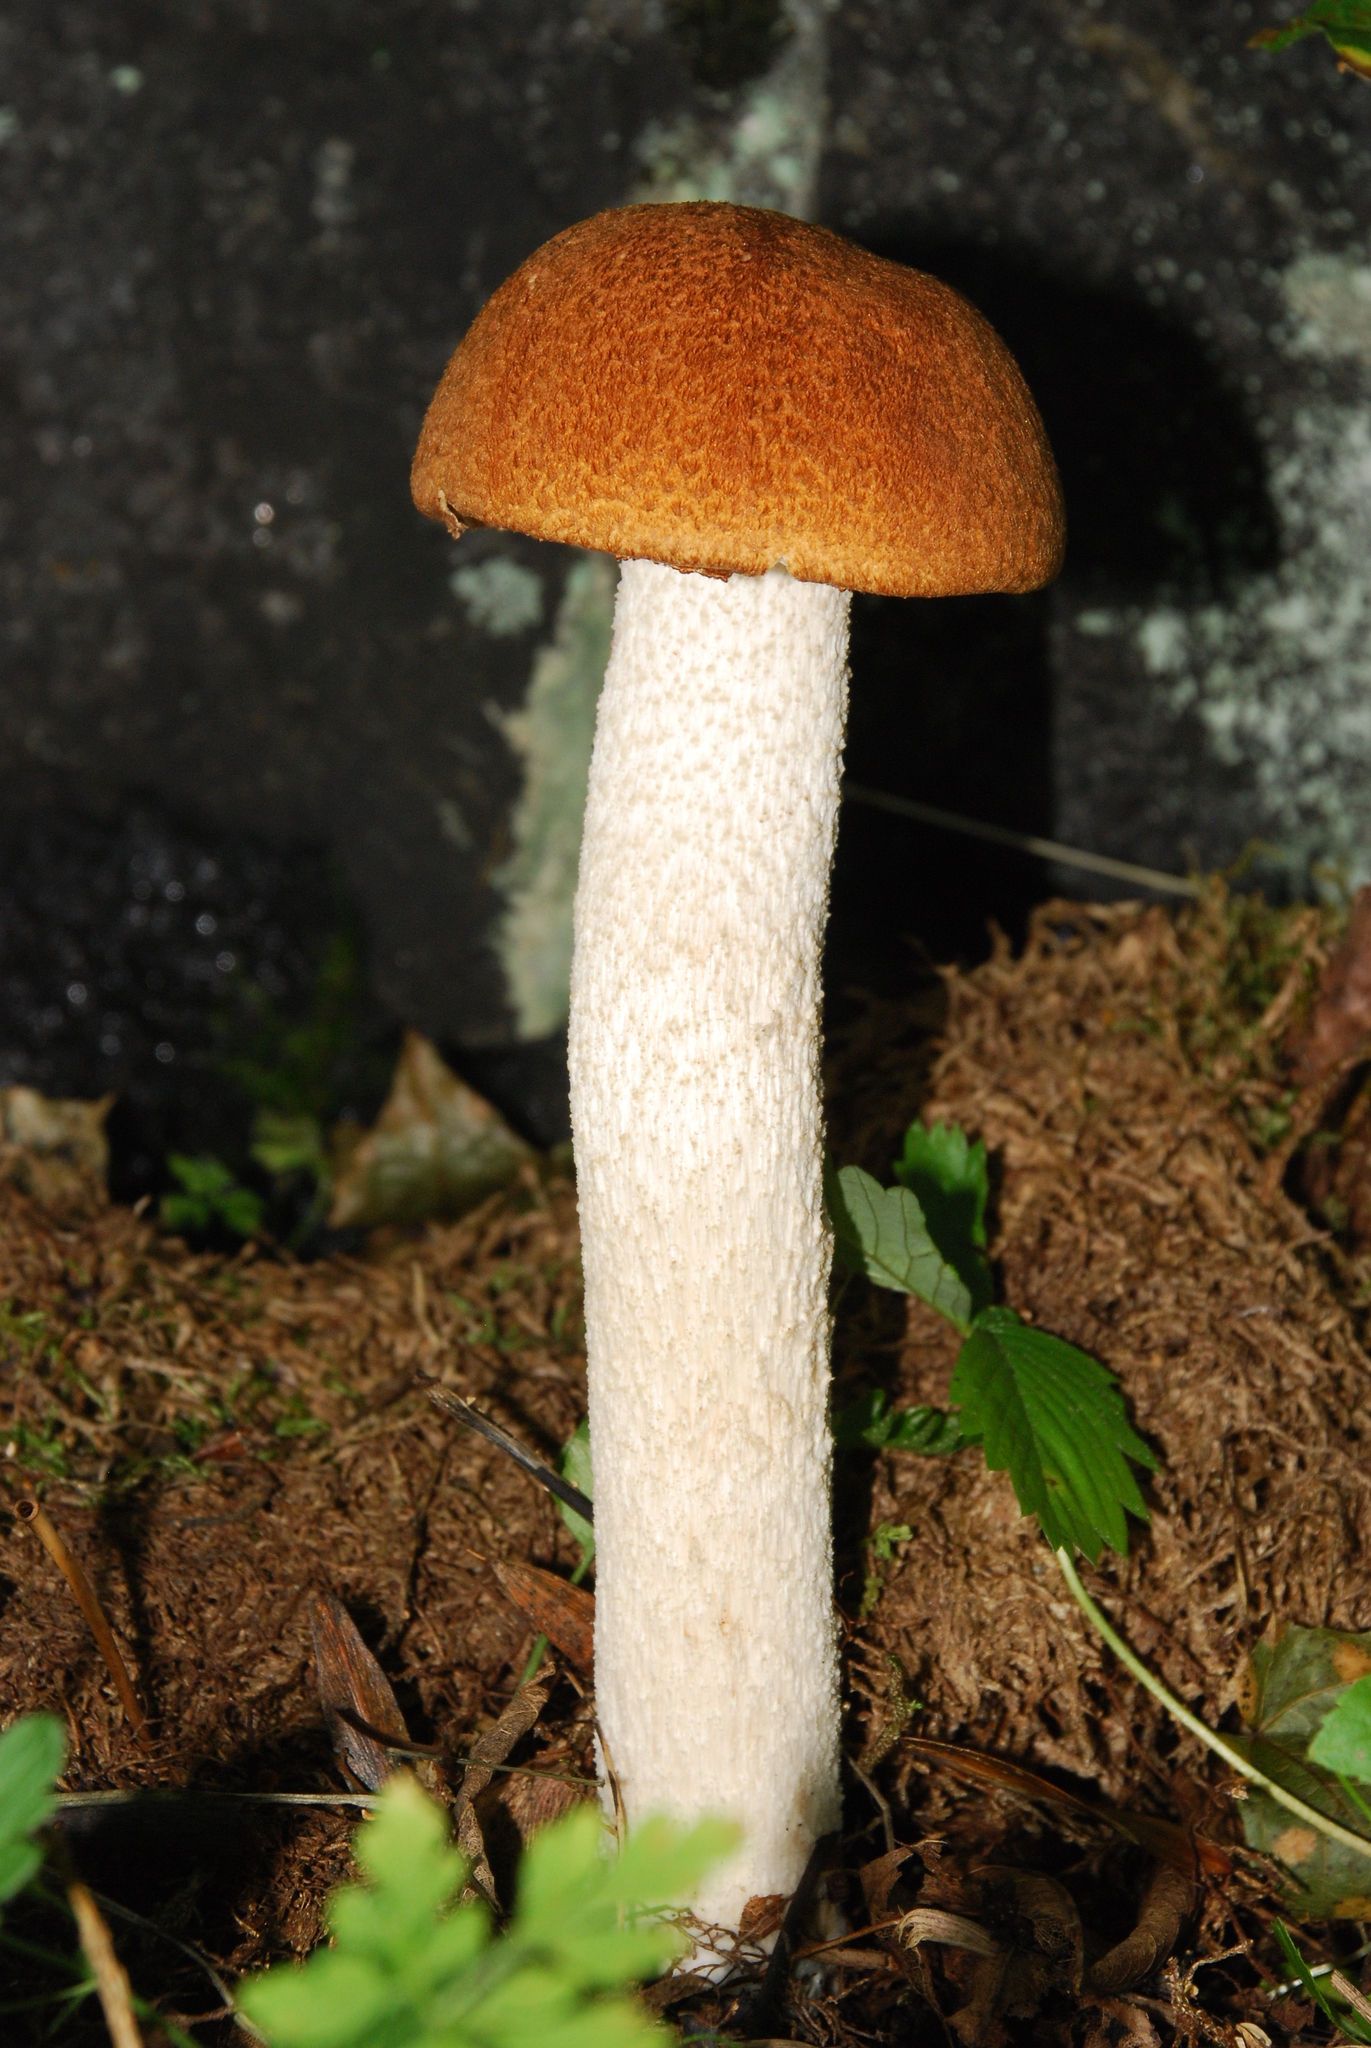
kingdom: Fungi
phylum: Basidiomycota
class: Agaricomycetes
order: Boletales
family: Boletaceae
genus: Leccinum
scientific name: Leccinum albostipitatum
